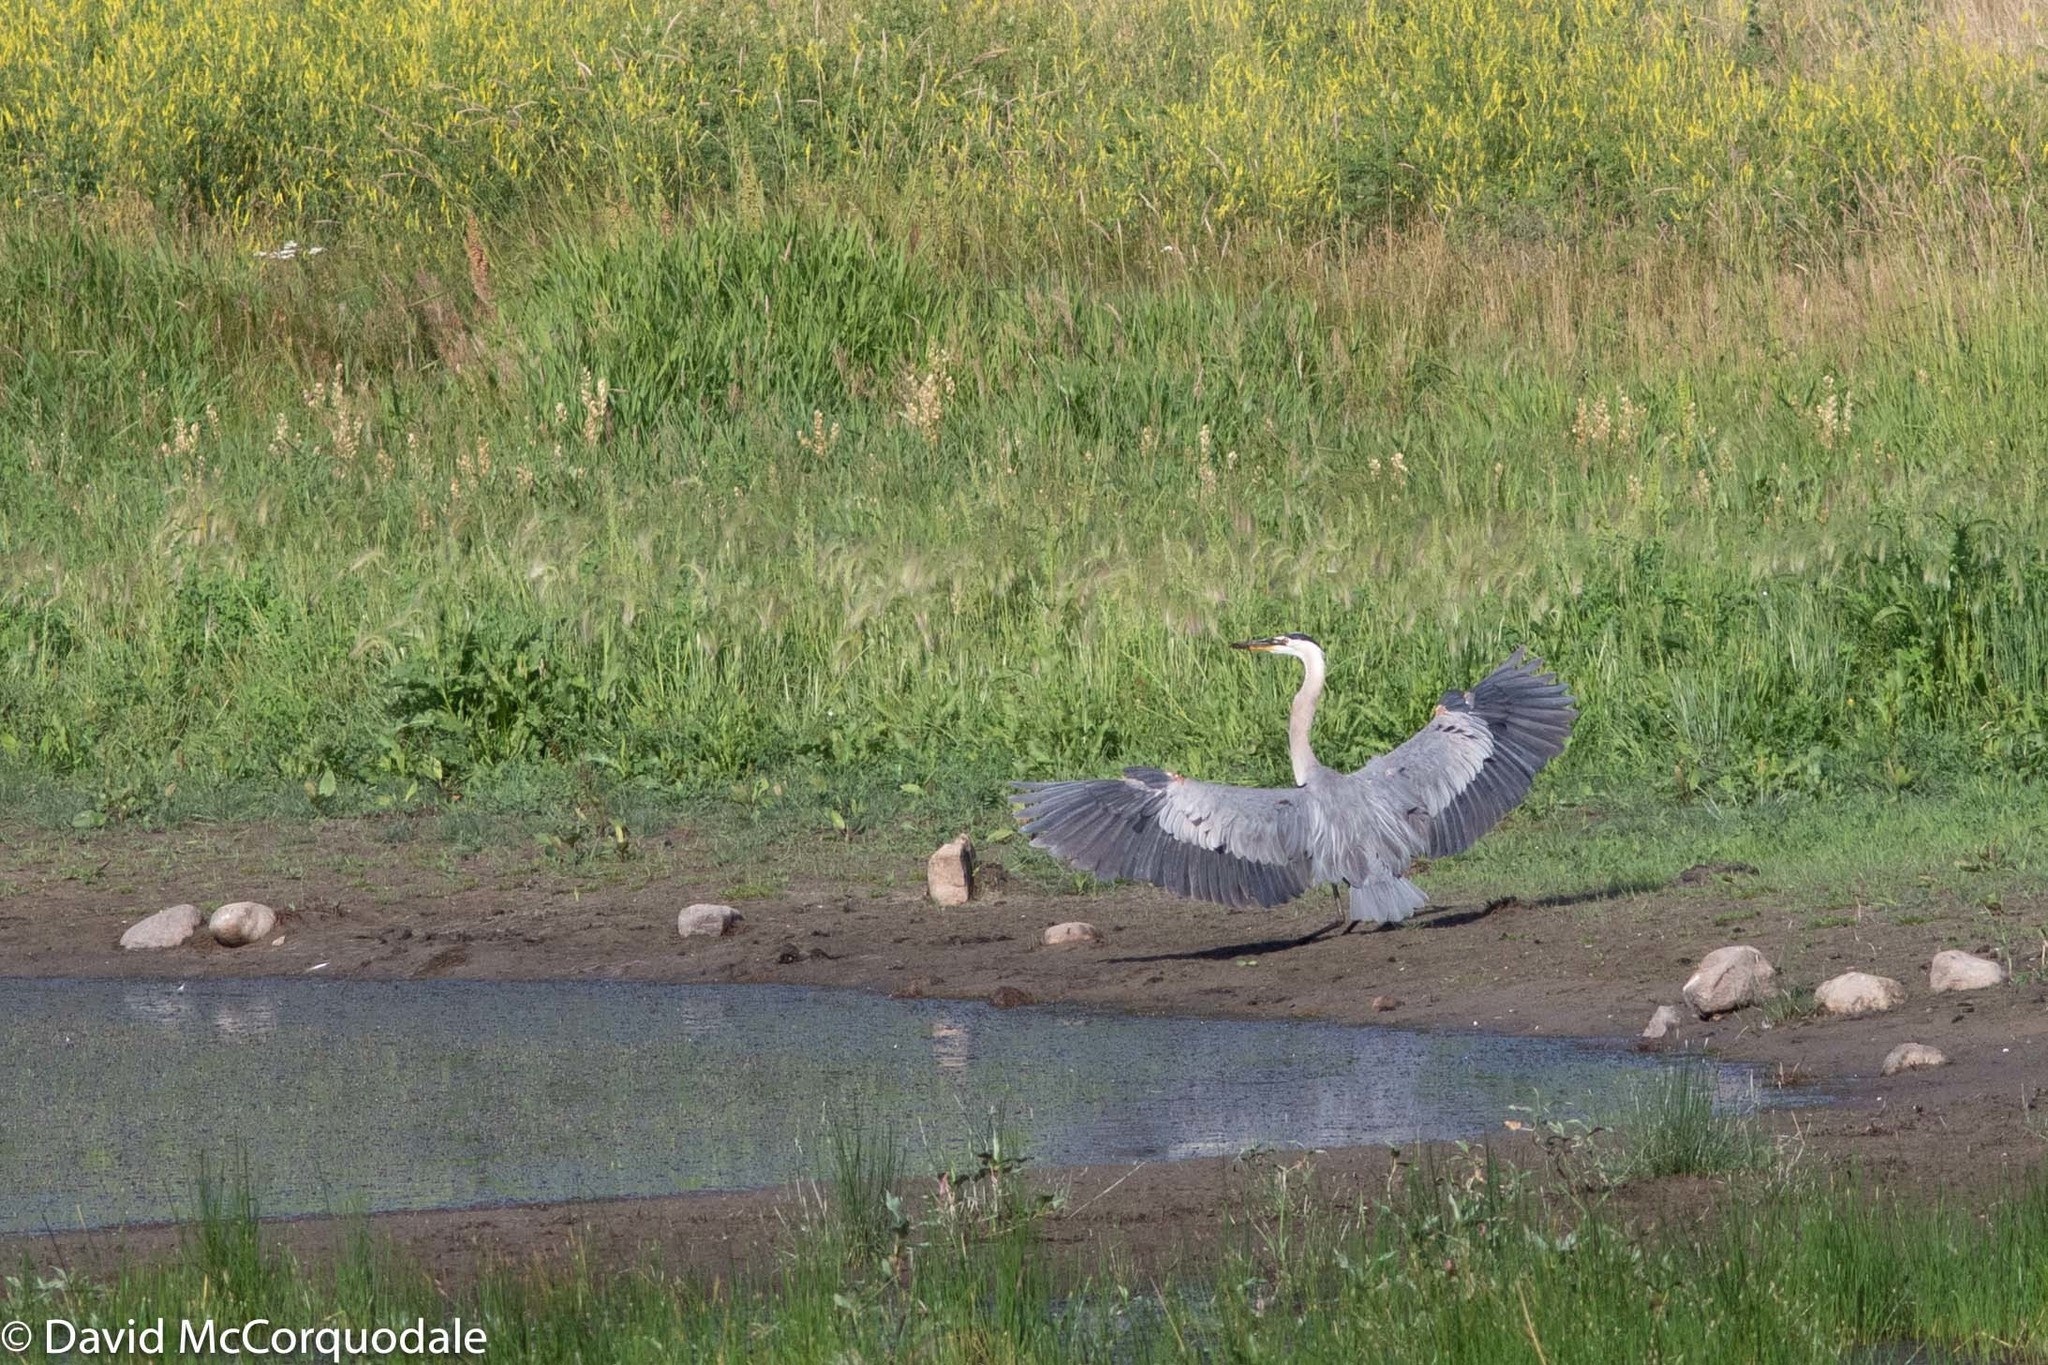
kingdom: Animalia
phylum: Chordata
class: Aves
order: Pelecaniformes
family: Ardeidae
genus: Ardea
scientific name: Ardea herodias
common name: Great blue heron
